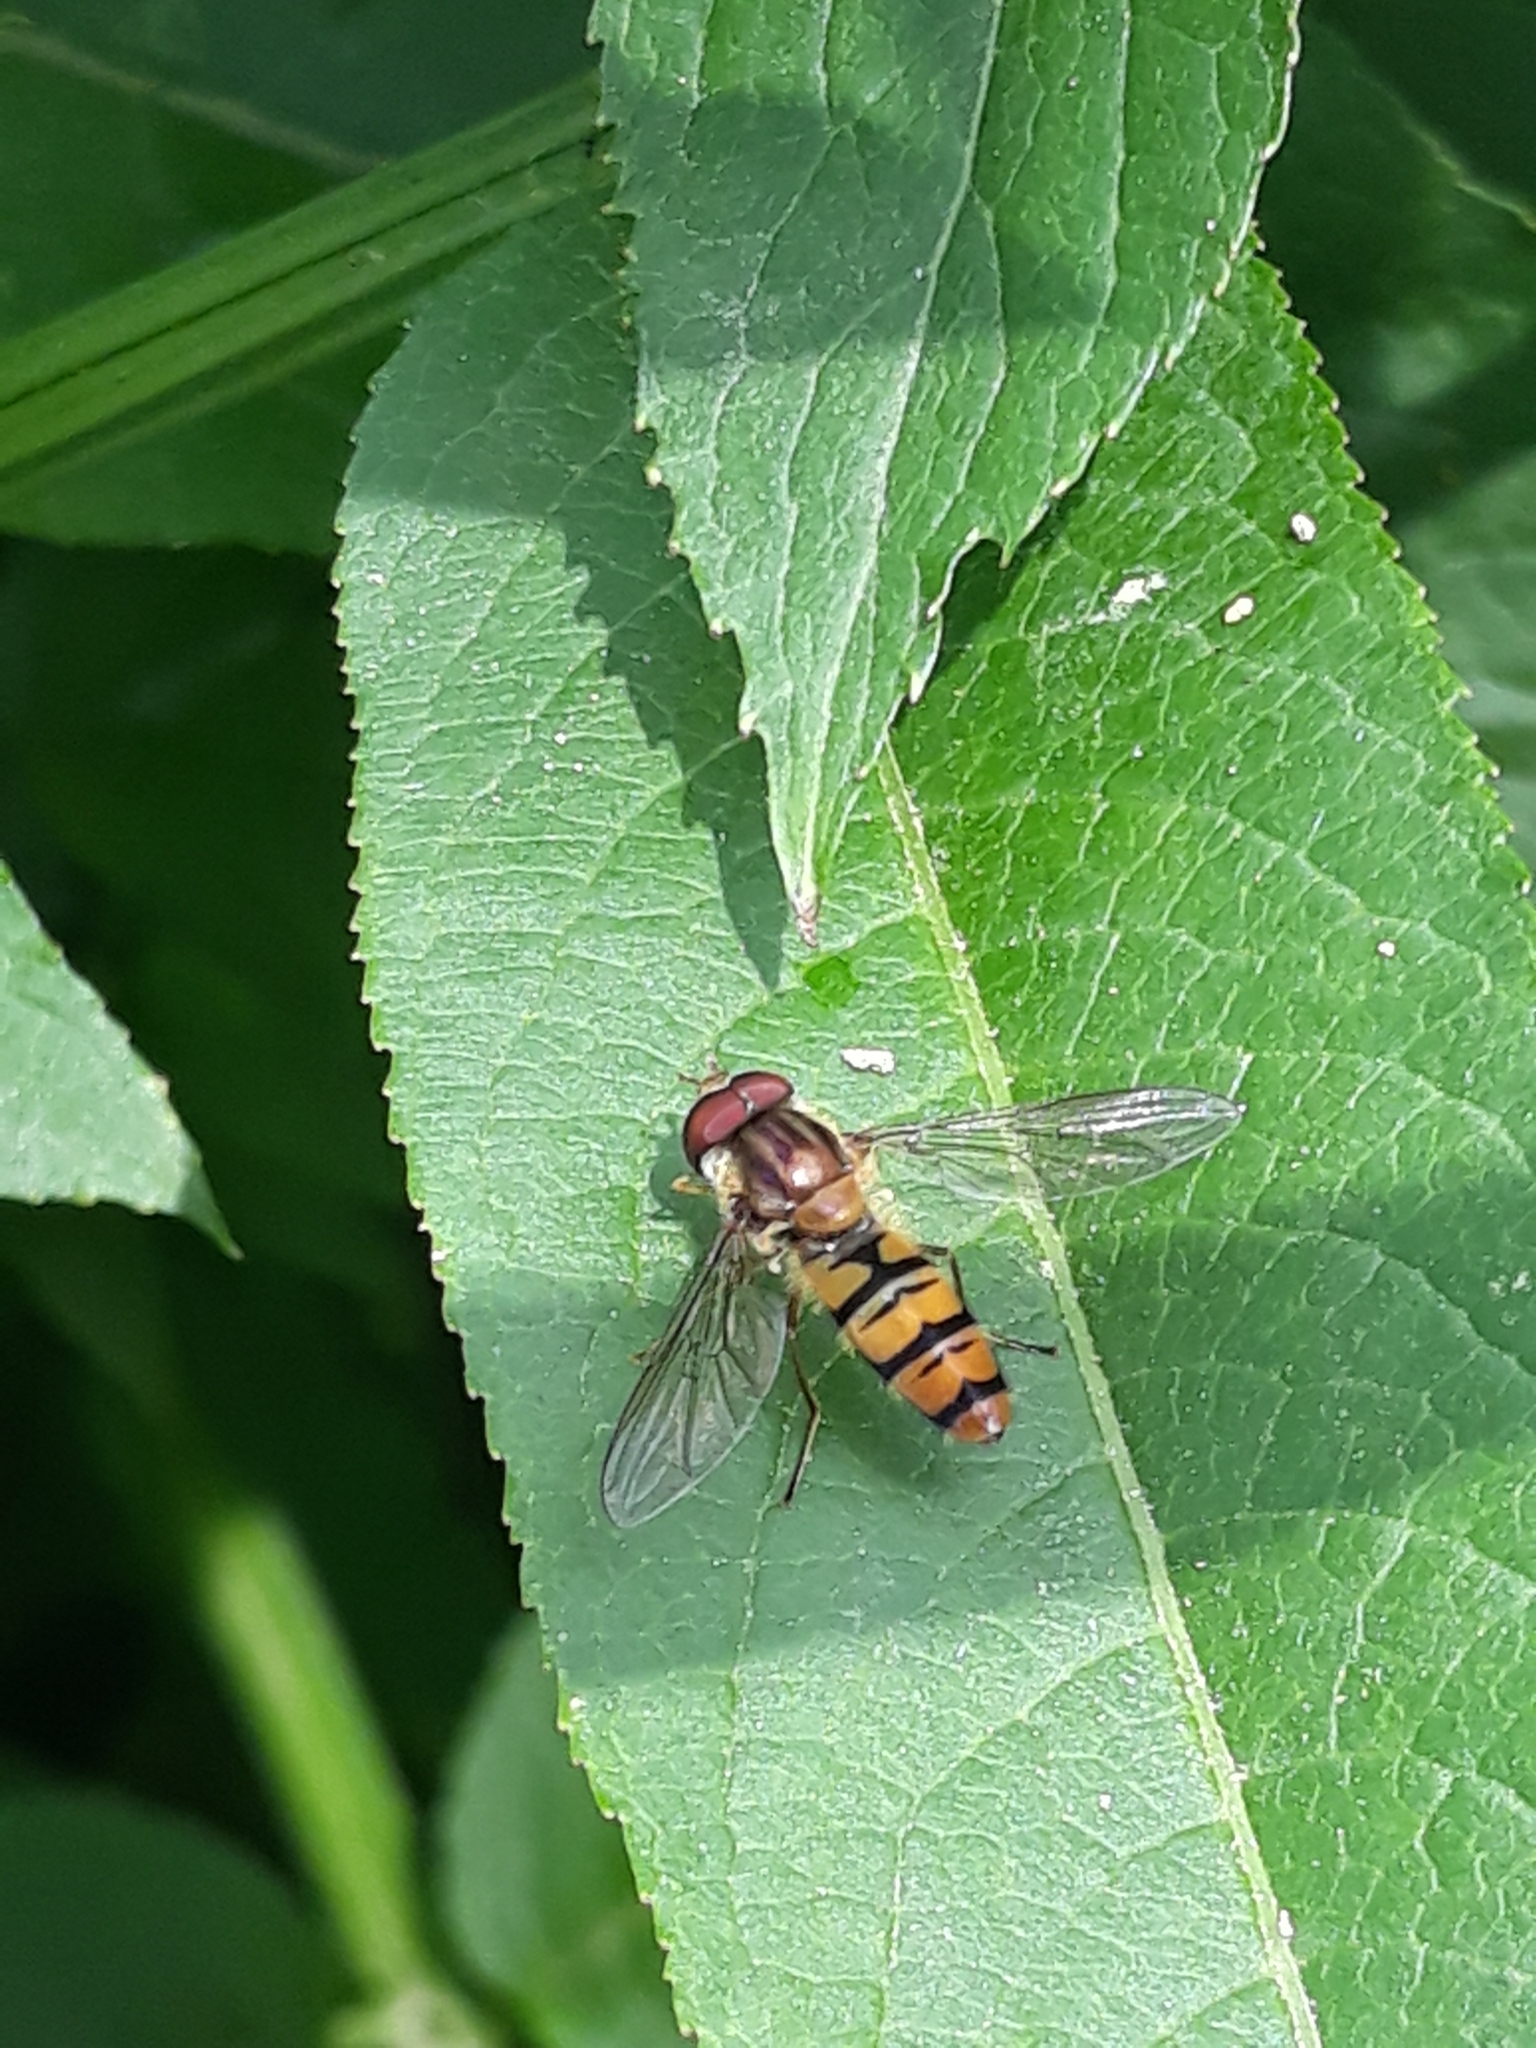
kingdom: Animalia
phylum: Arthropoda
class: Insecta
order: Diptera
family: Syrphidae
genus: Episyrphus
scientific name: Episyrphus balteatus
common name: Marmalade hoverfly
